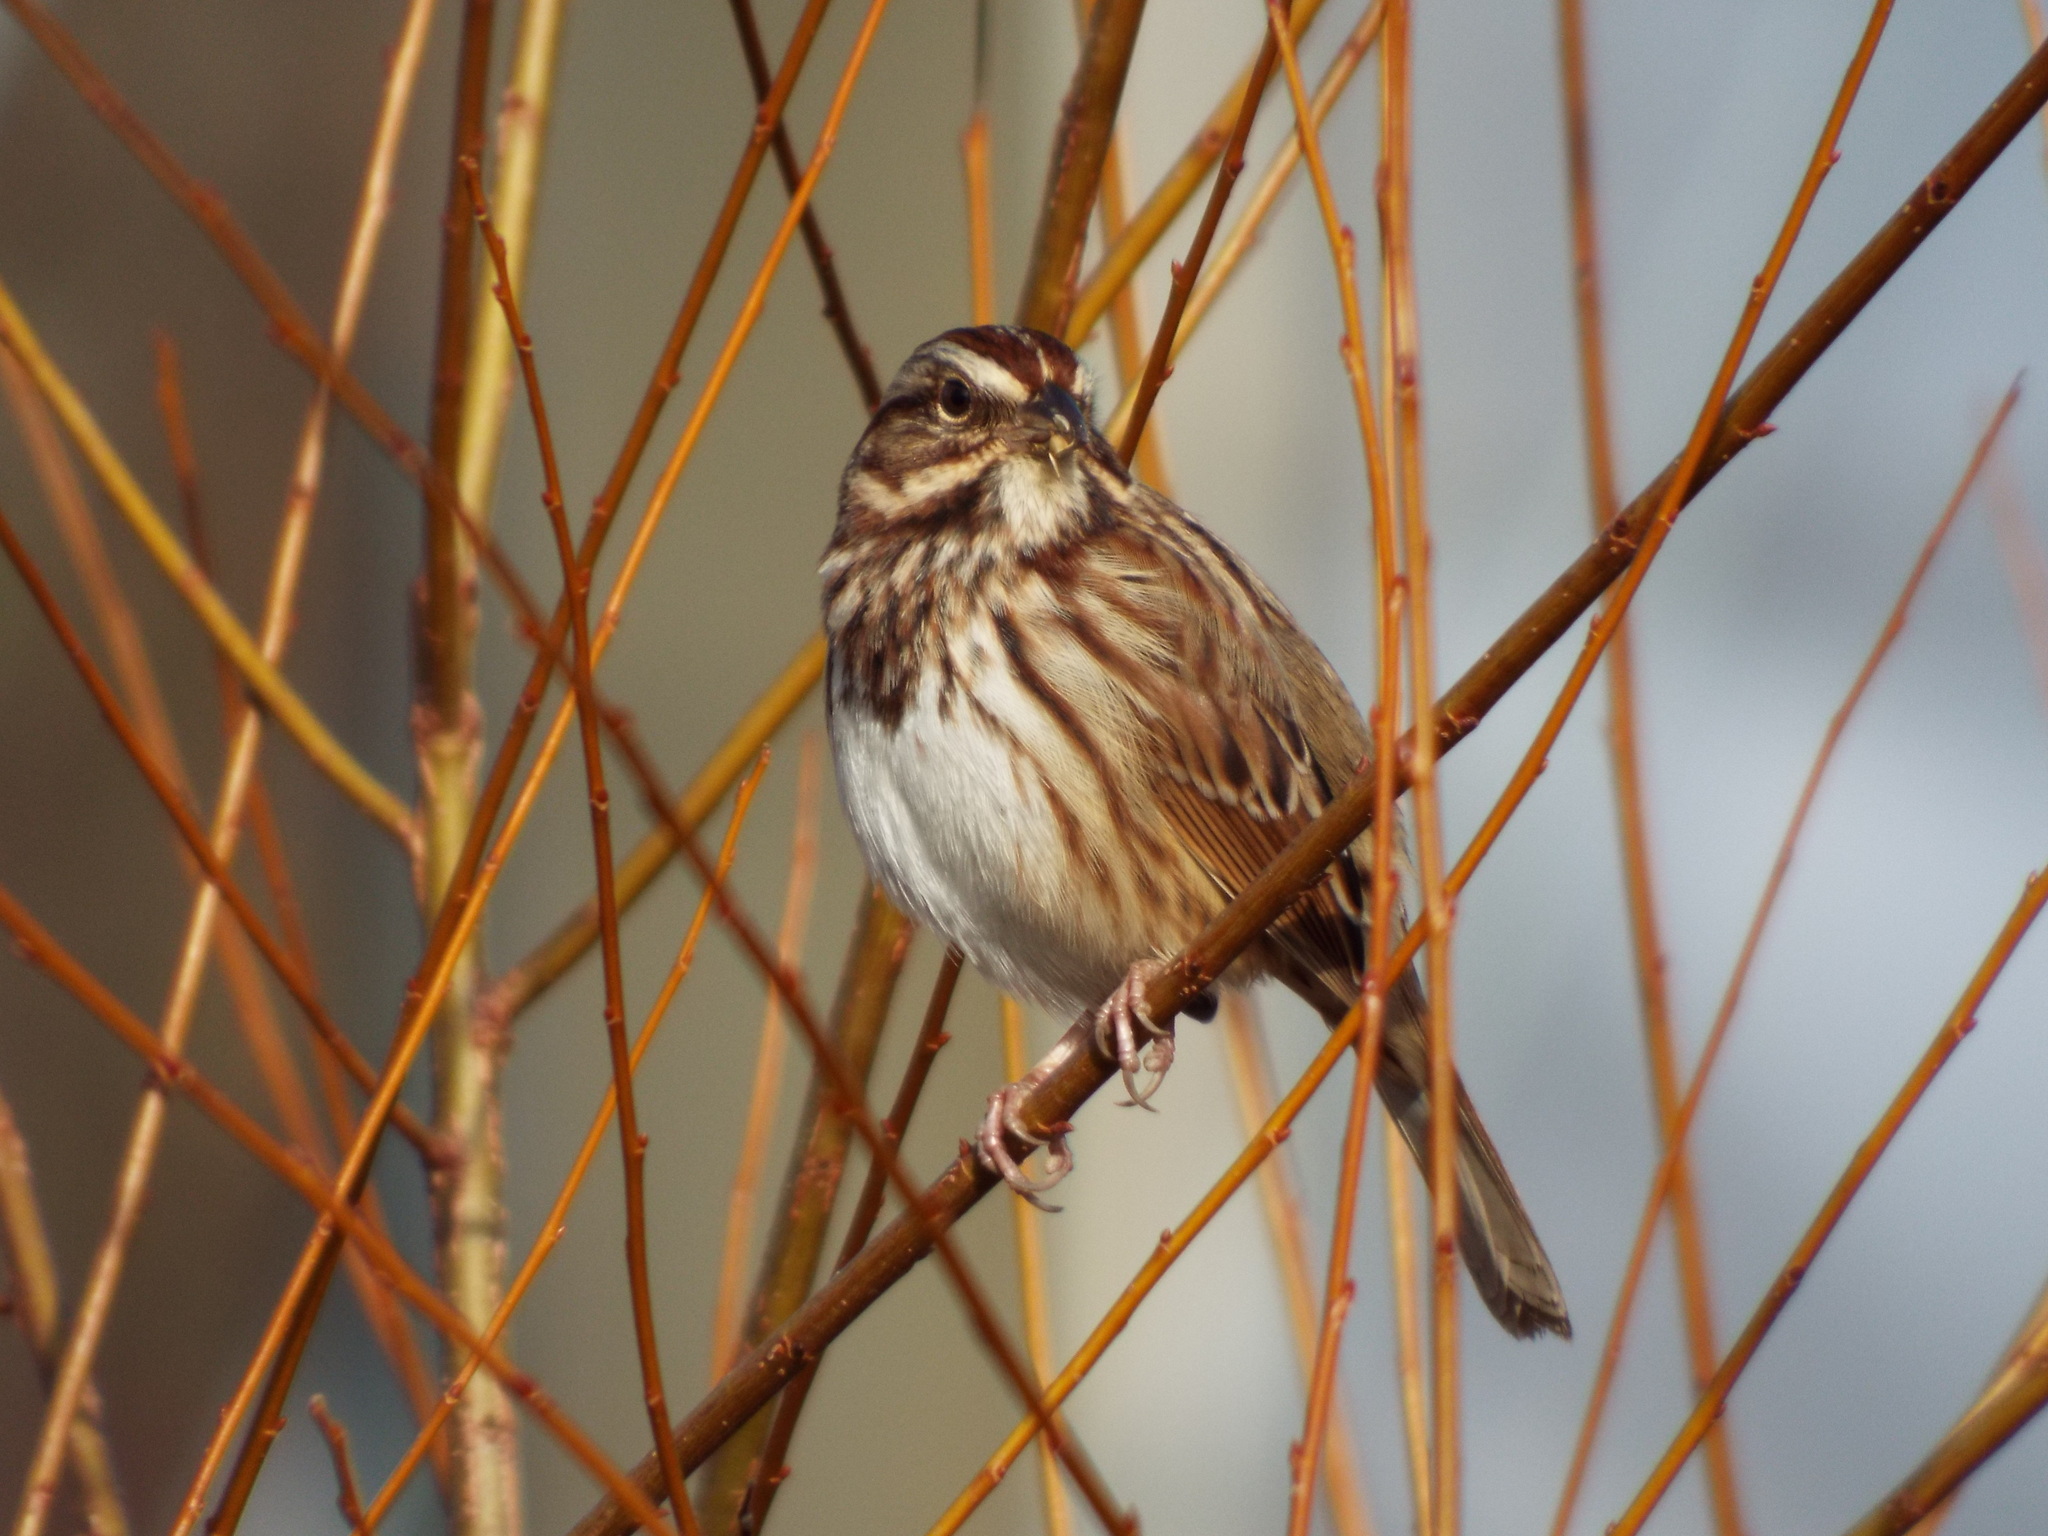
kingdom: Animalia
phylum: Chordata
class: Aves
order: Passeriformes
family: Passerellidae
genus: Melospiza
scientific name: Melospiza melodia
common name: Song sparrow
